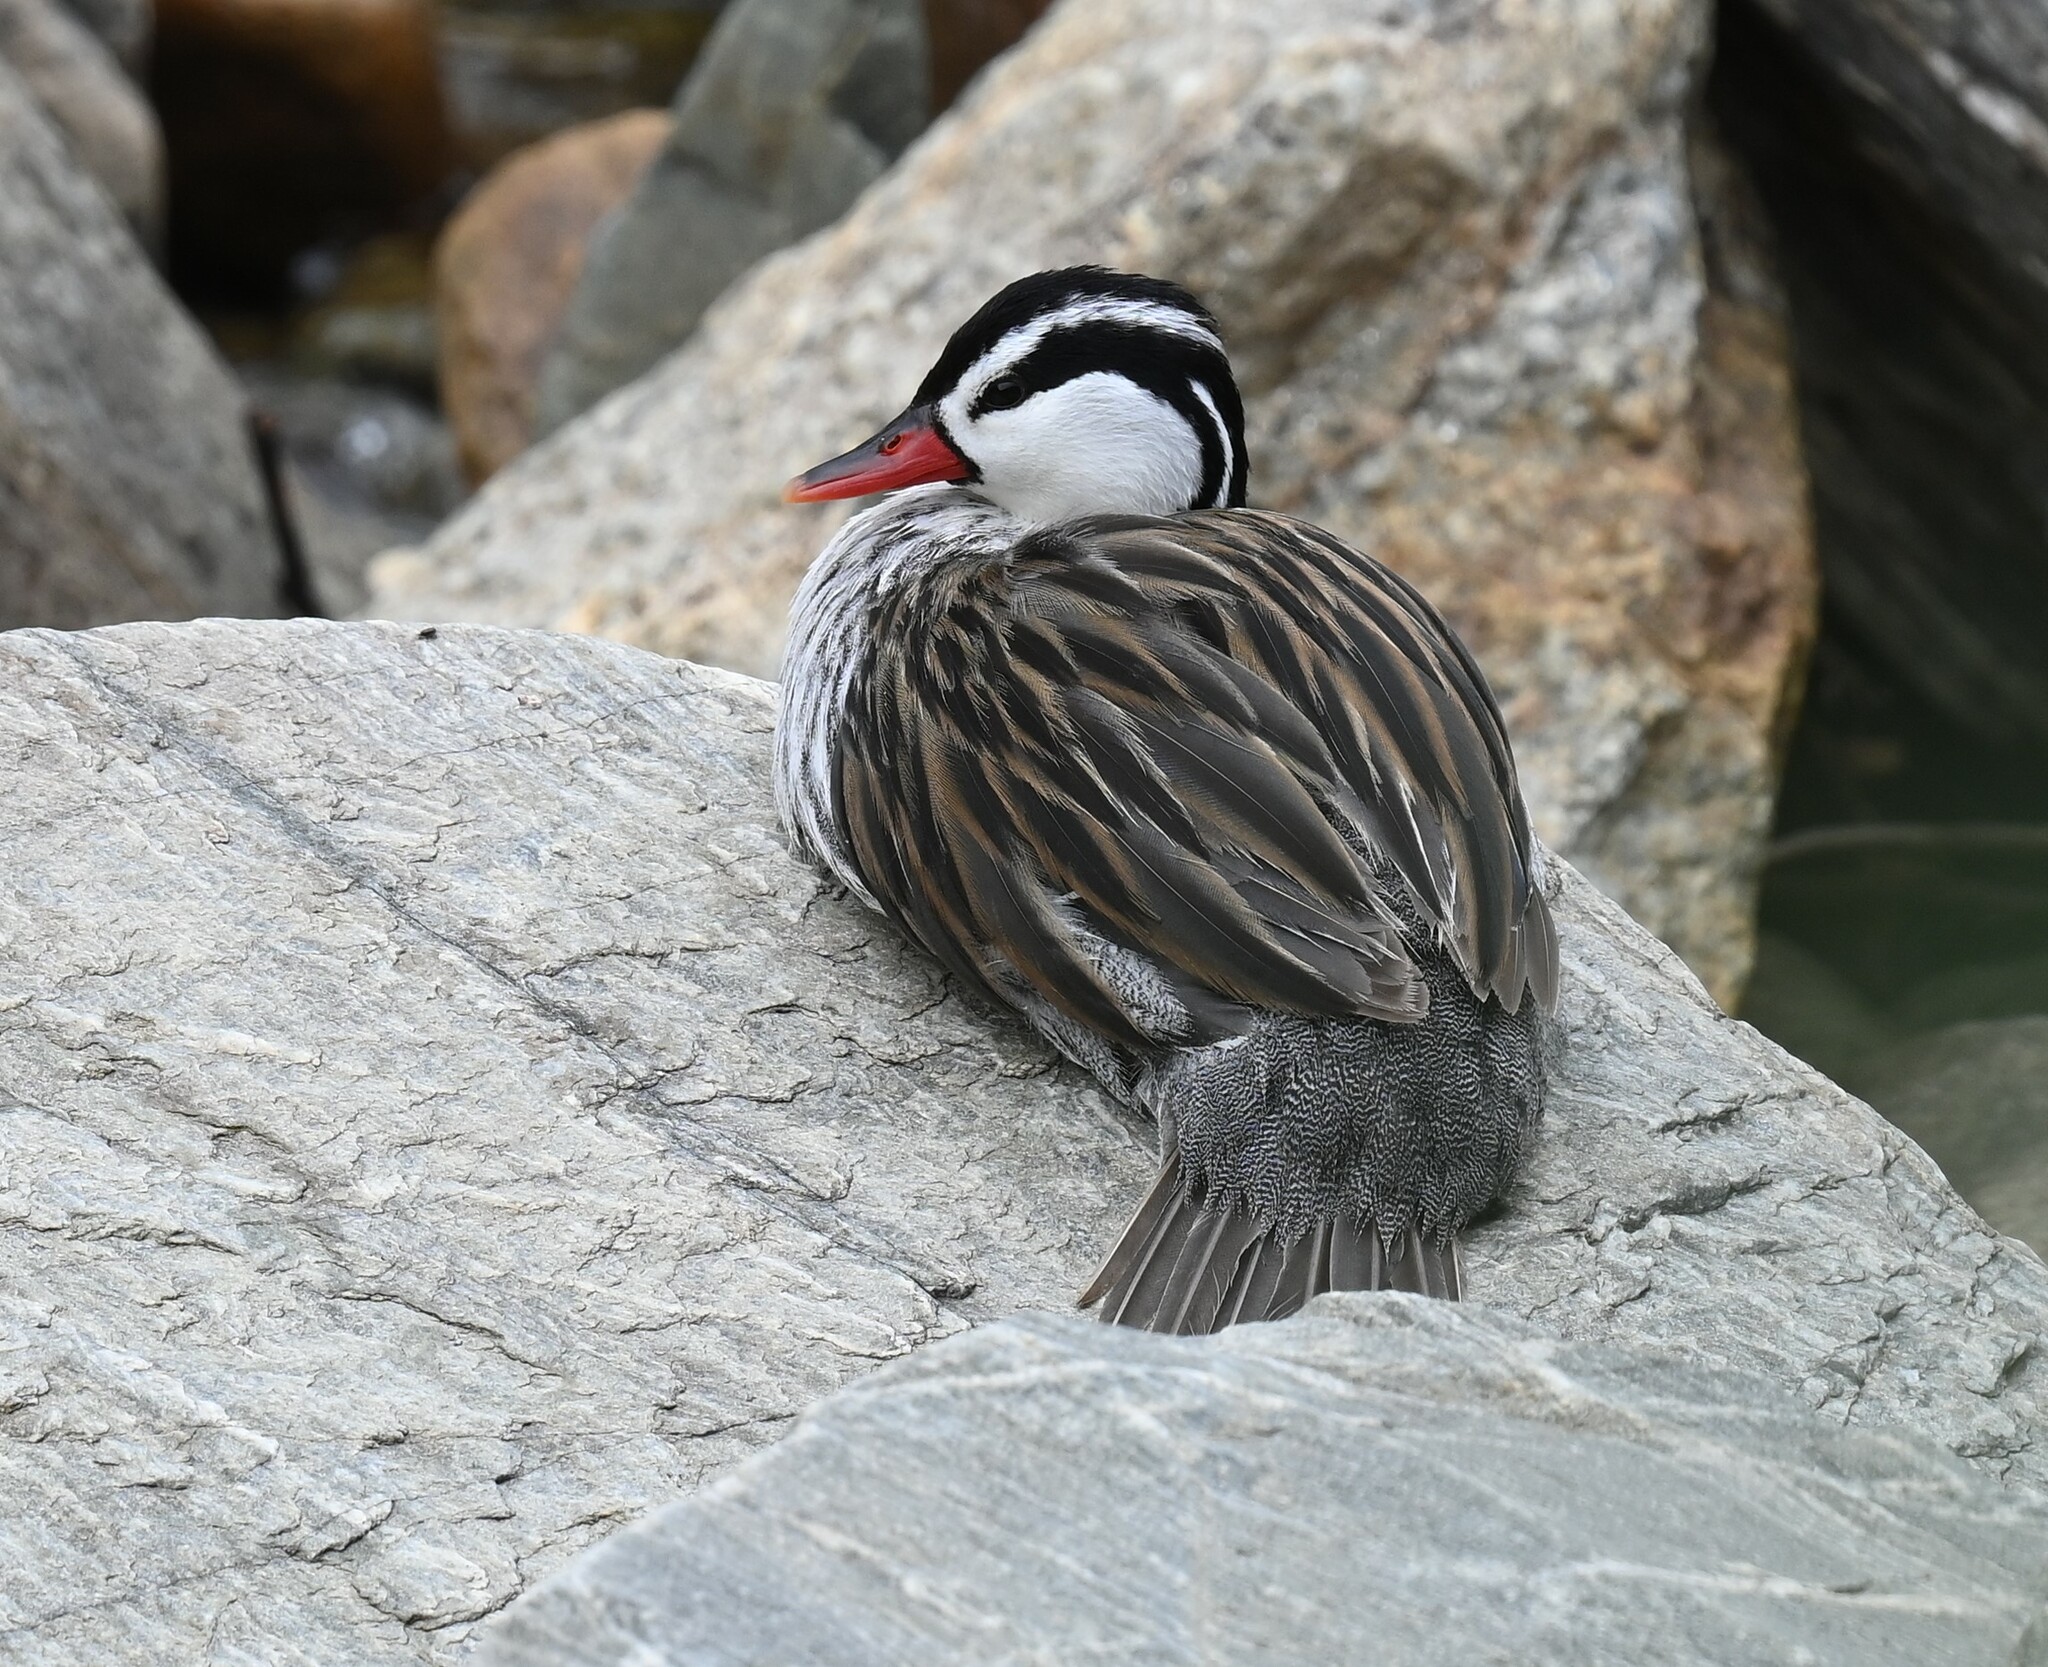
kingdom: Animalia
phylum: Chordata
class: Aves
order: Anseriformes
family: Anatidae
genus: Merganetta
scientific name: Merganetta armata
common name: Torrent duck
